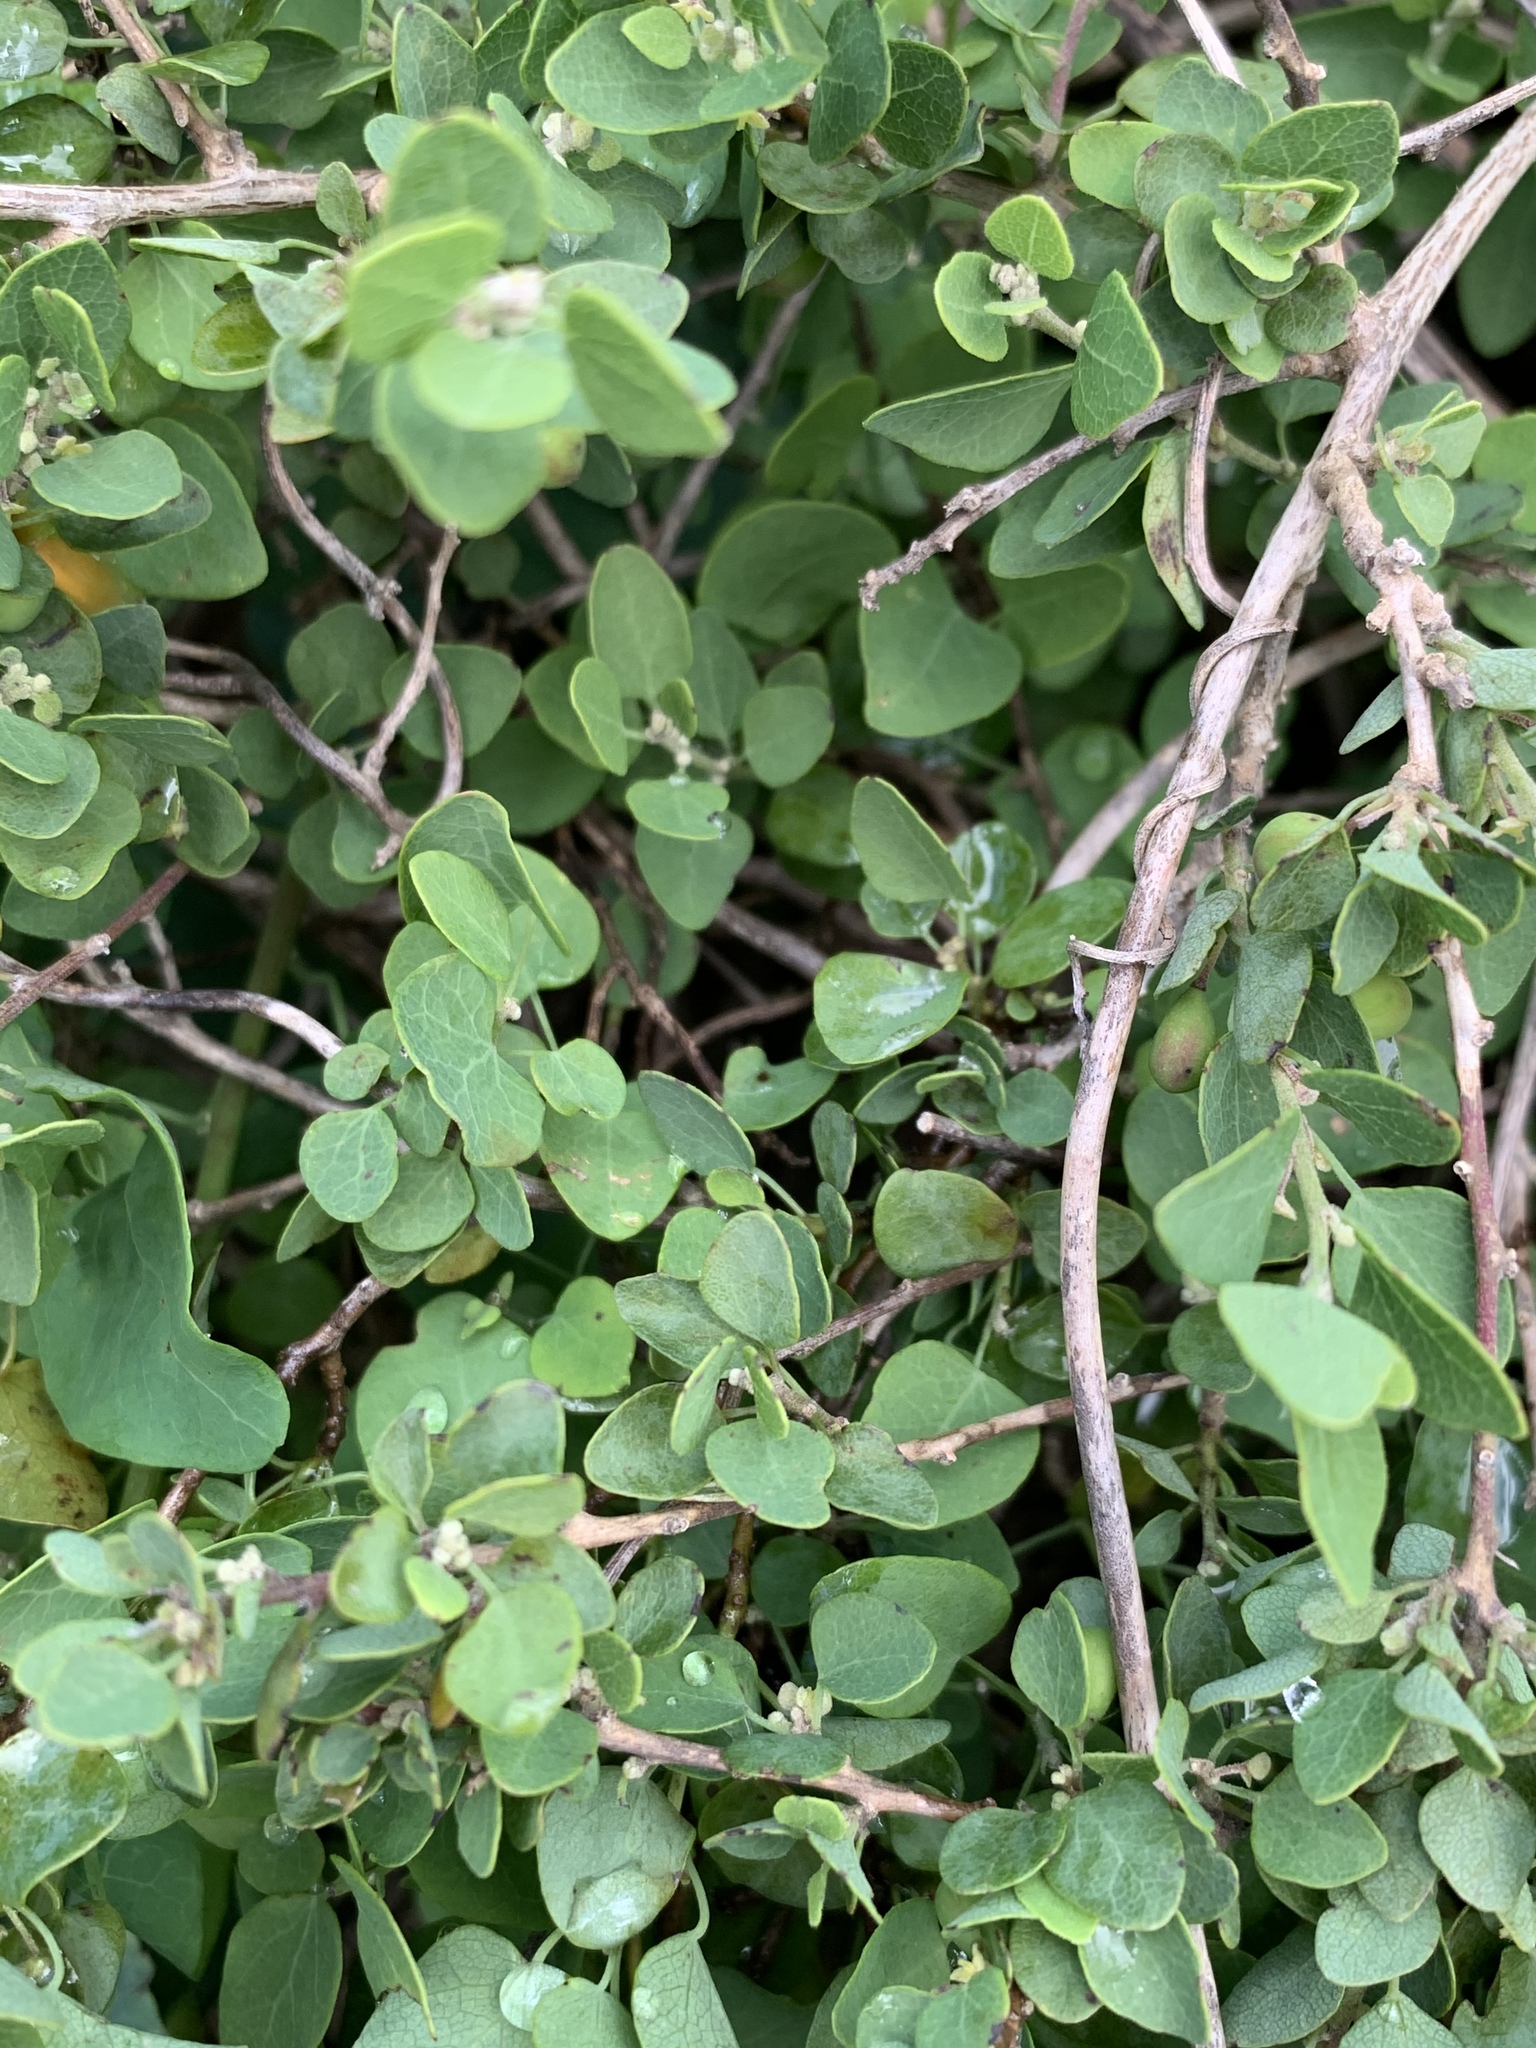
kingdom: Plantae
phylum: Tracheophyta
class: Magnoliopsida
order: Ranunculales
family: Menispermaceae
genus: Cissampelos
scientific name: Cissampelos capensis
